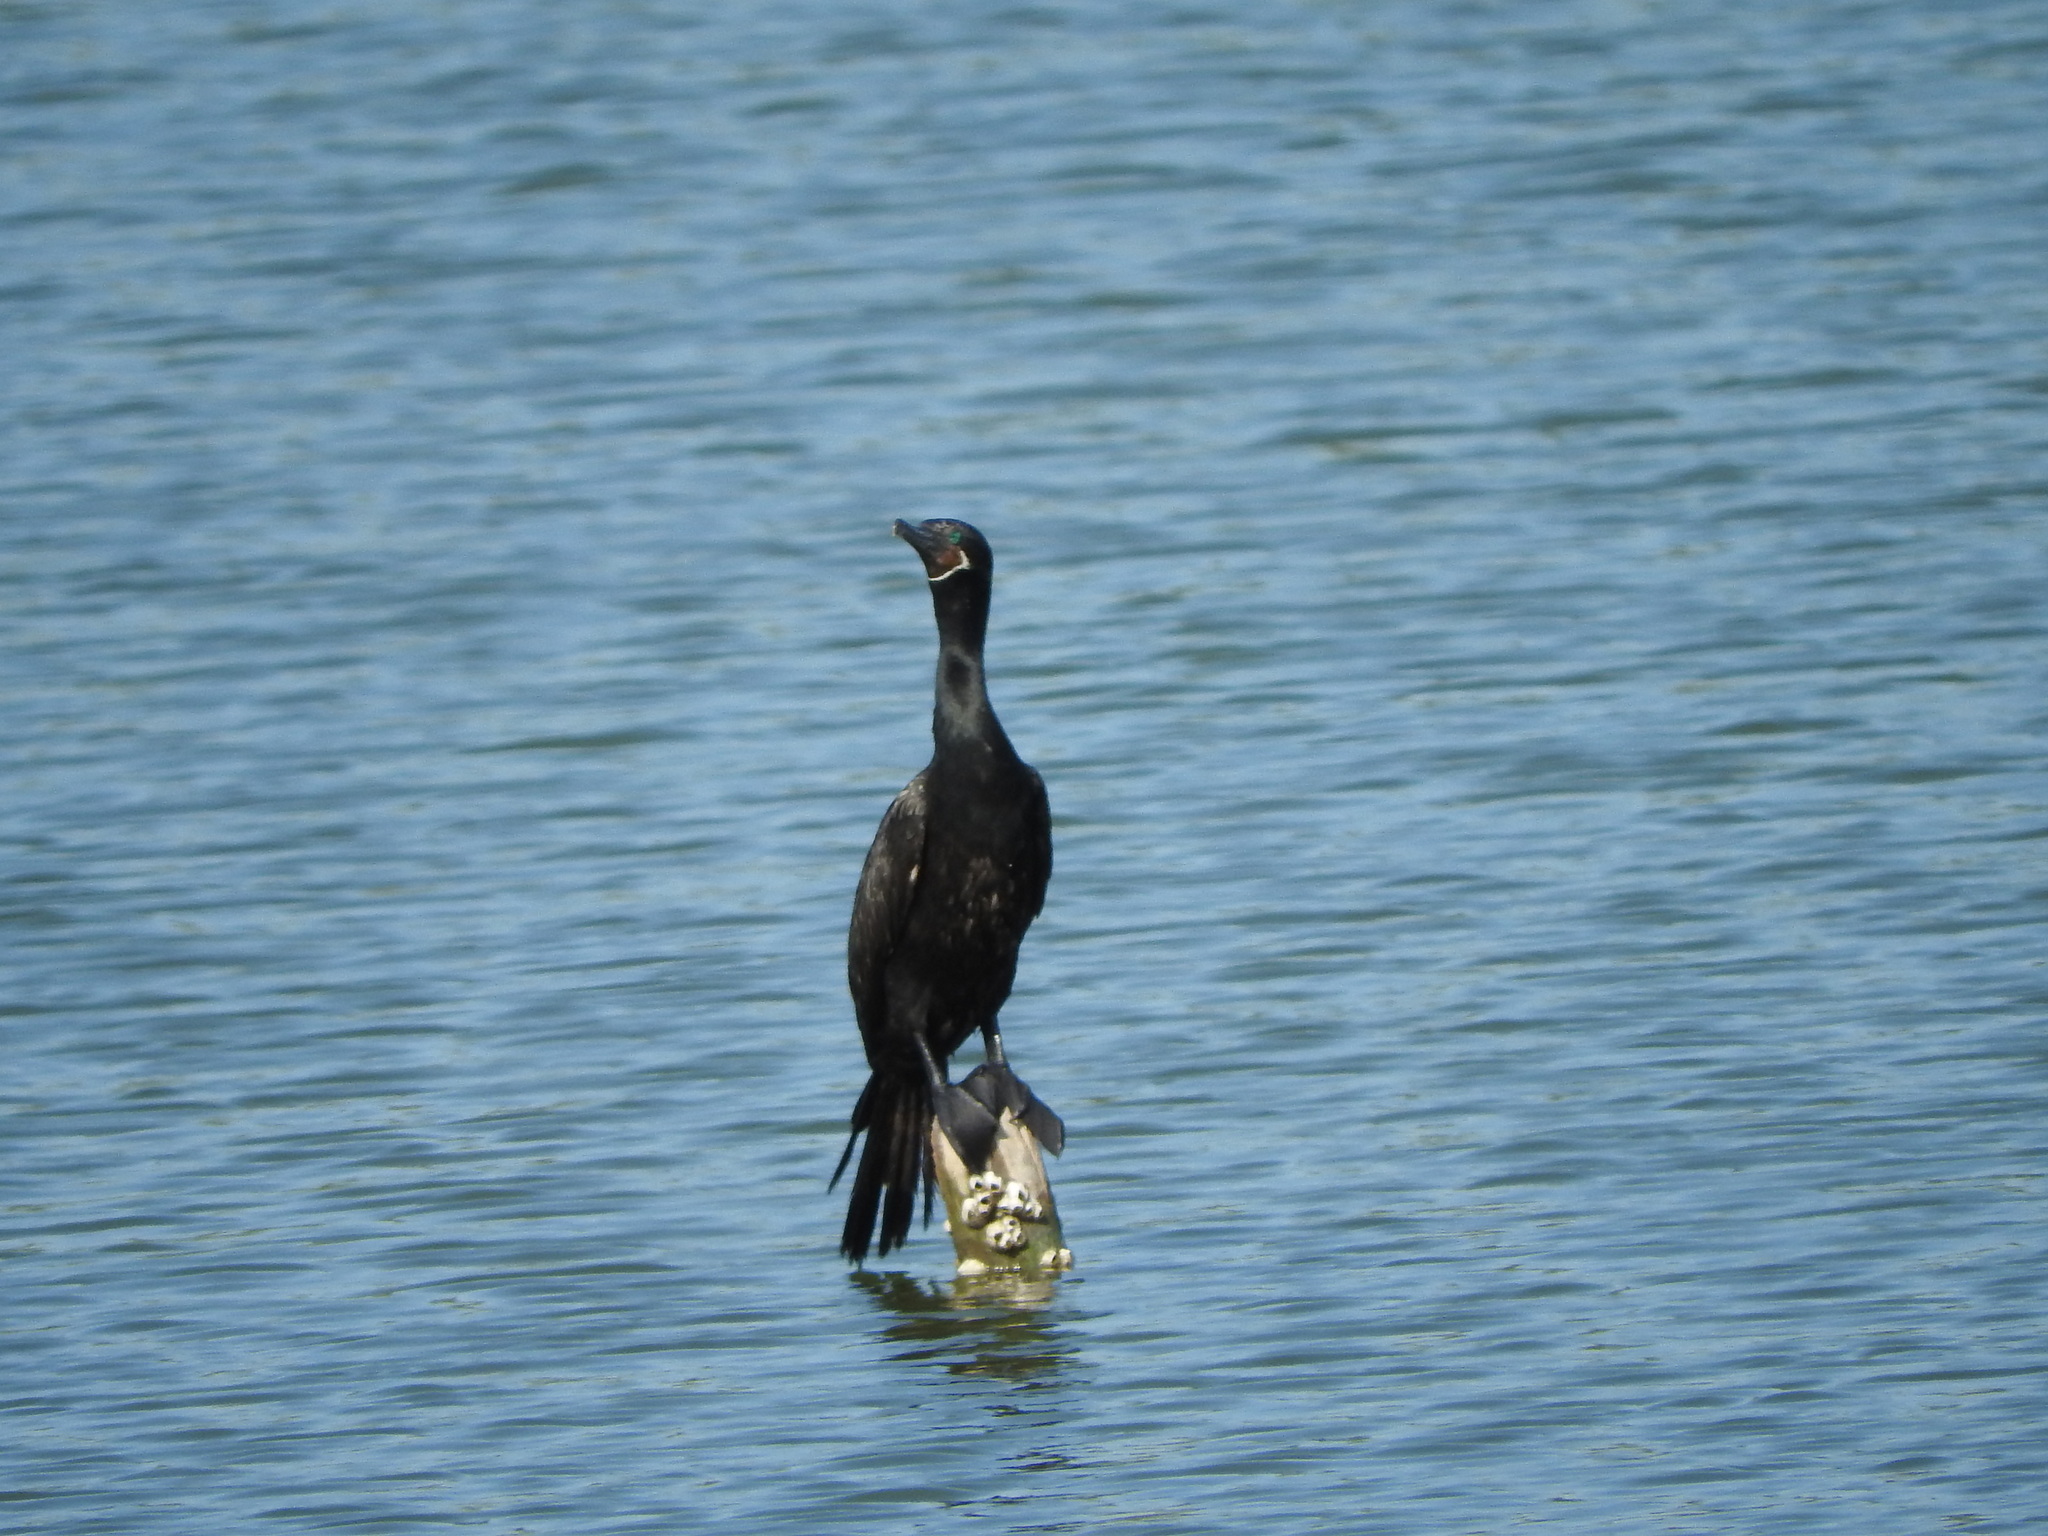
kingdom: Animalia
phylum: Chordata
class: Aves
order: Suliformes
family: Phalacrocoracidae
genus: Phalacrocorax
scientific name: Phalacrocorax brasilianus
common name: Neotropic cormorant
